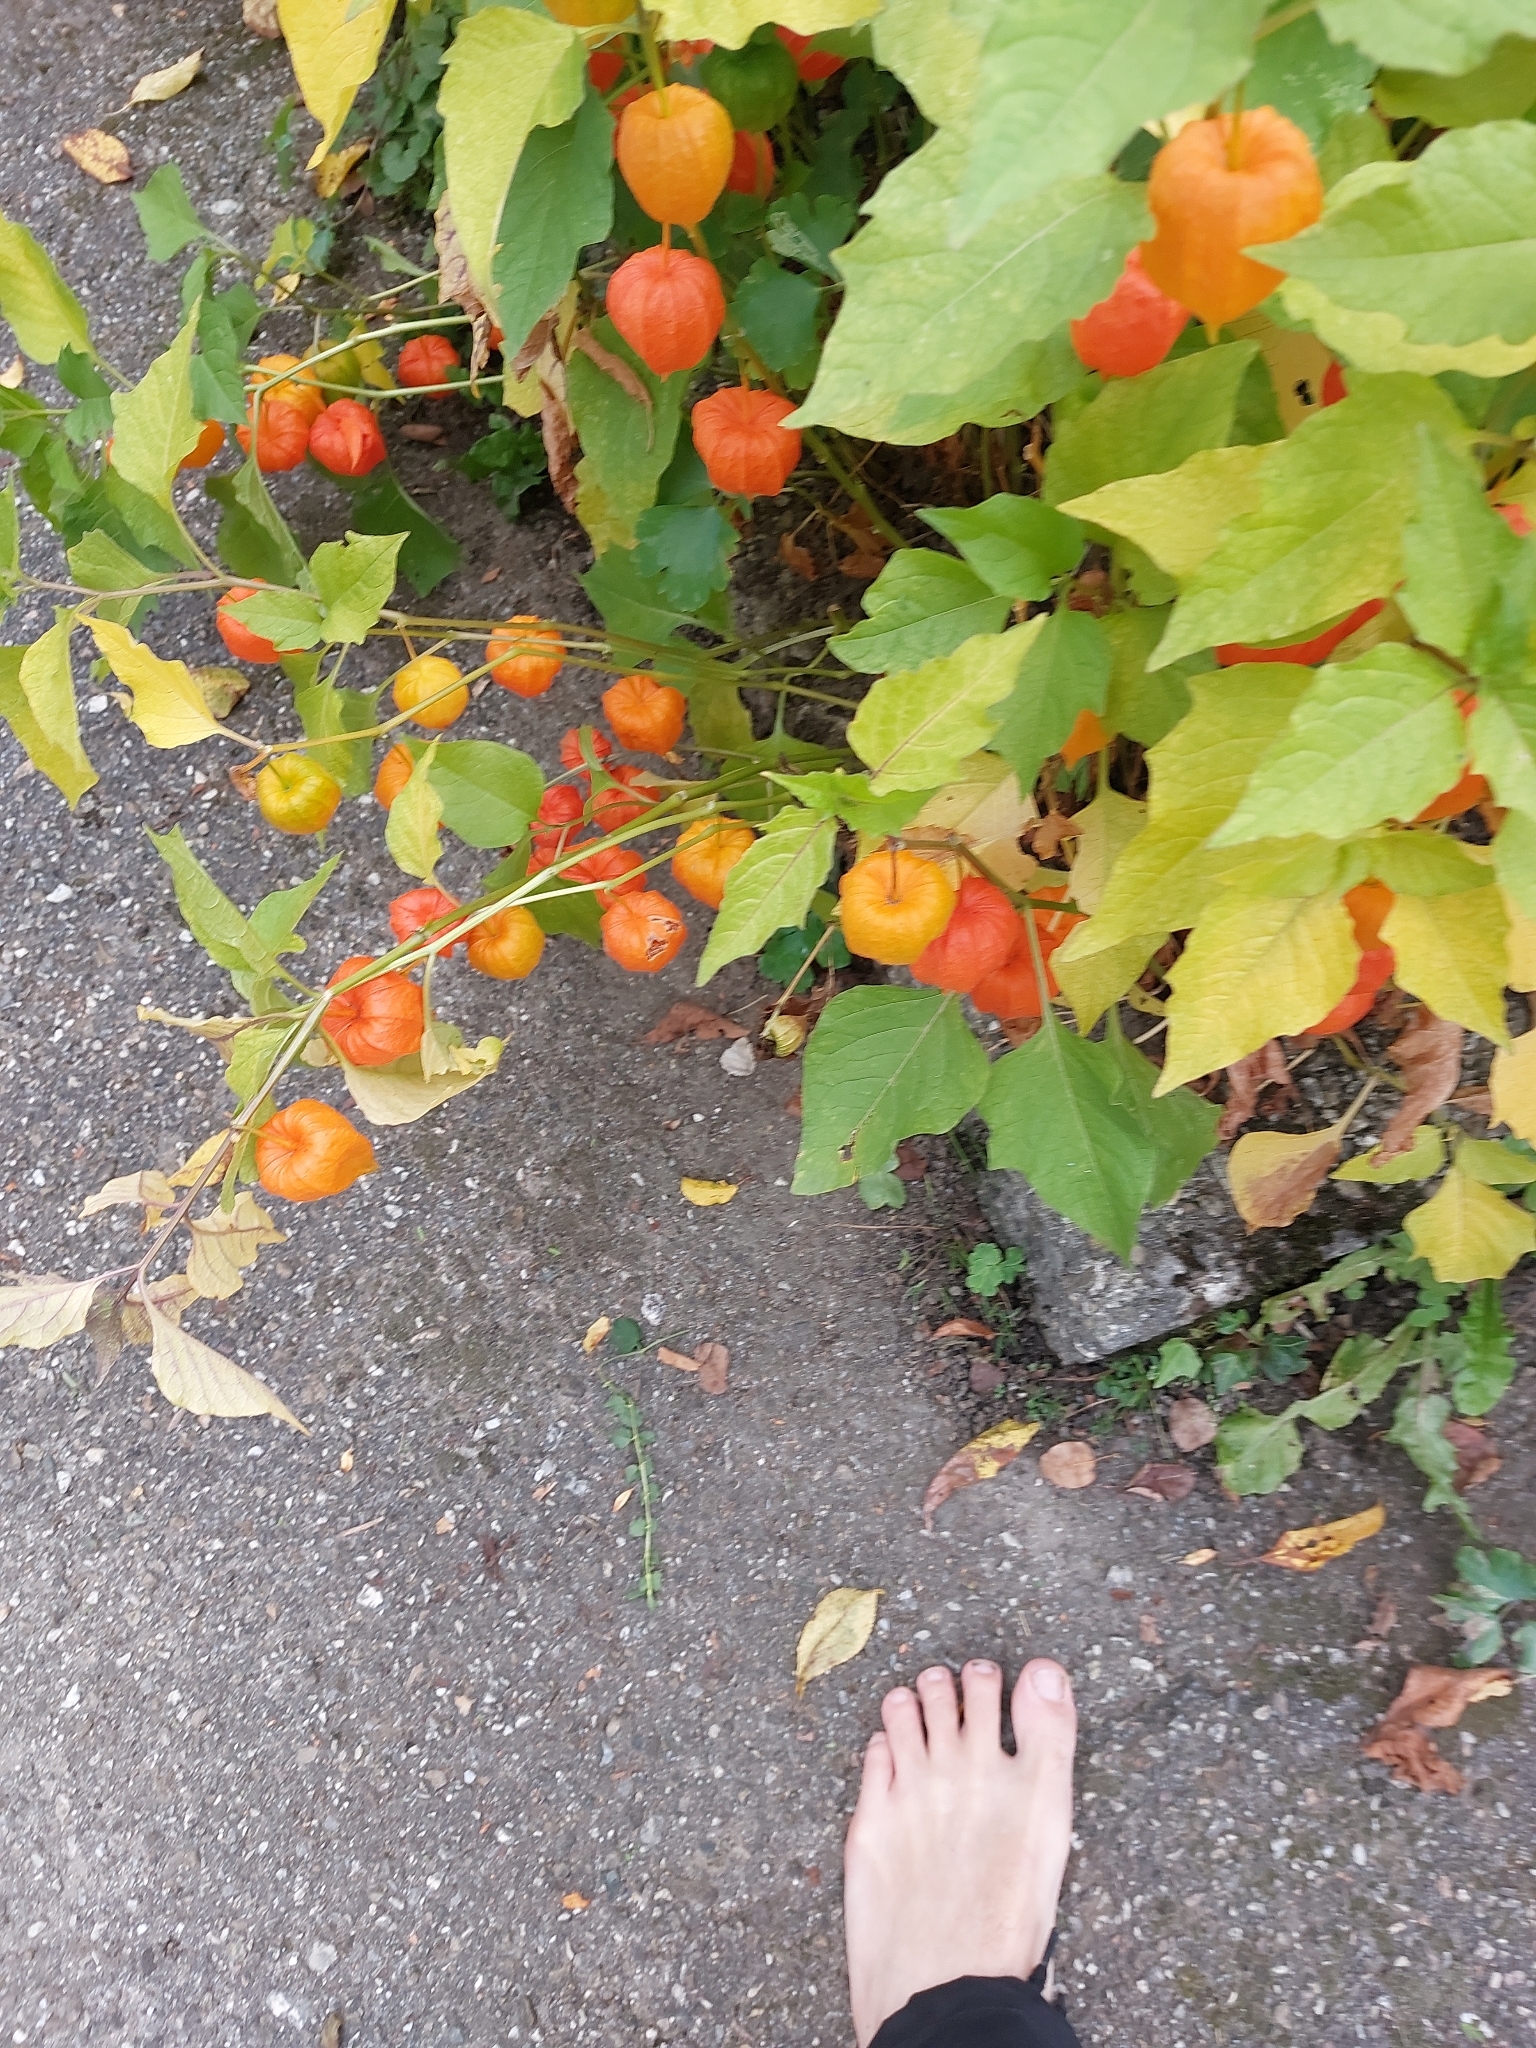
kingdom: Plantae
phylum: Tracheophyta
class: Magnoliopsida
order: Solanales
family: Solanaceae
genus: Alkekengi
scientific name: Alkekengi officinarum
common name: Japanese-lantern
